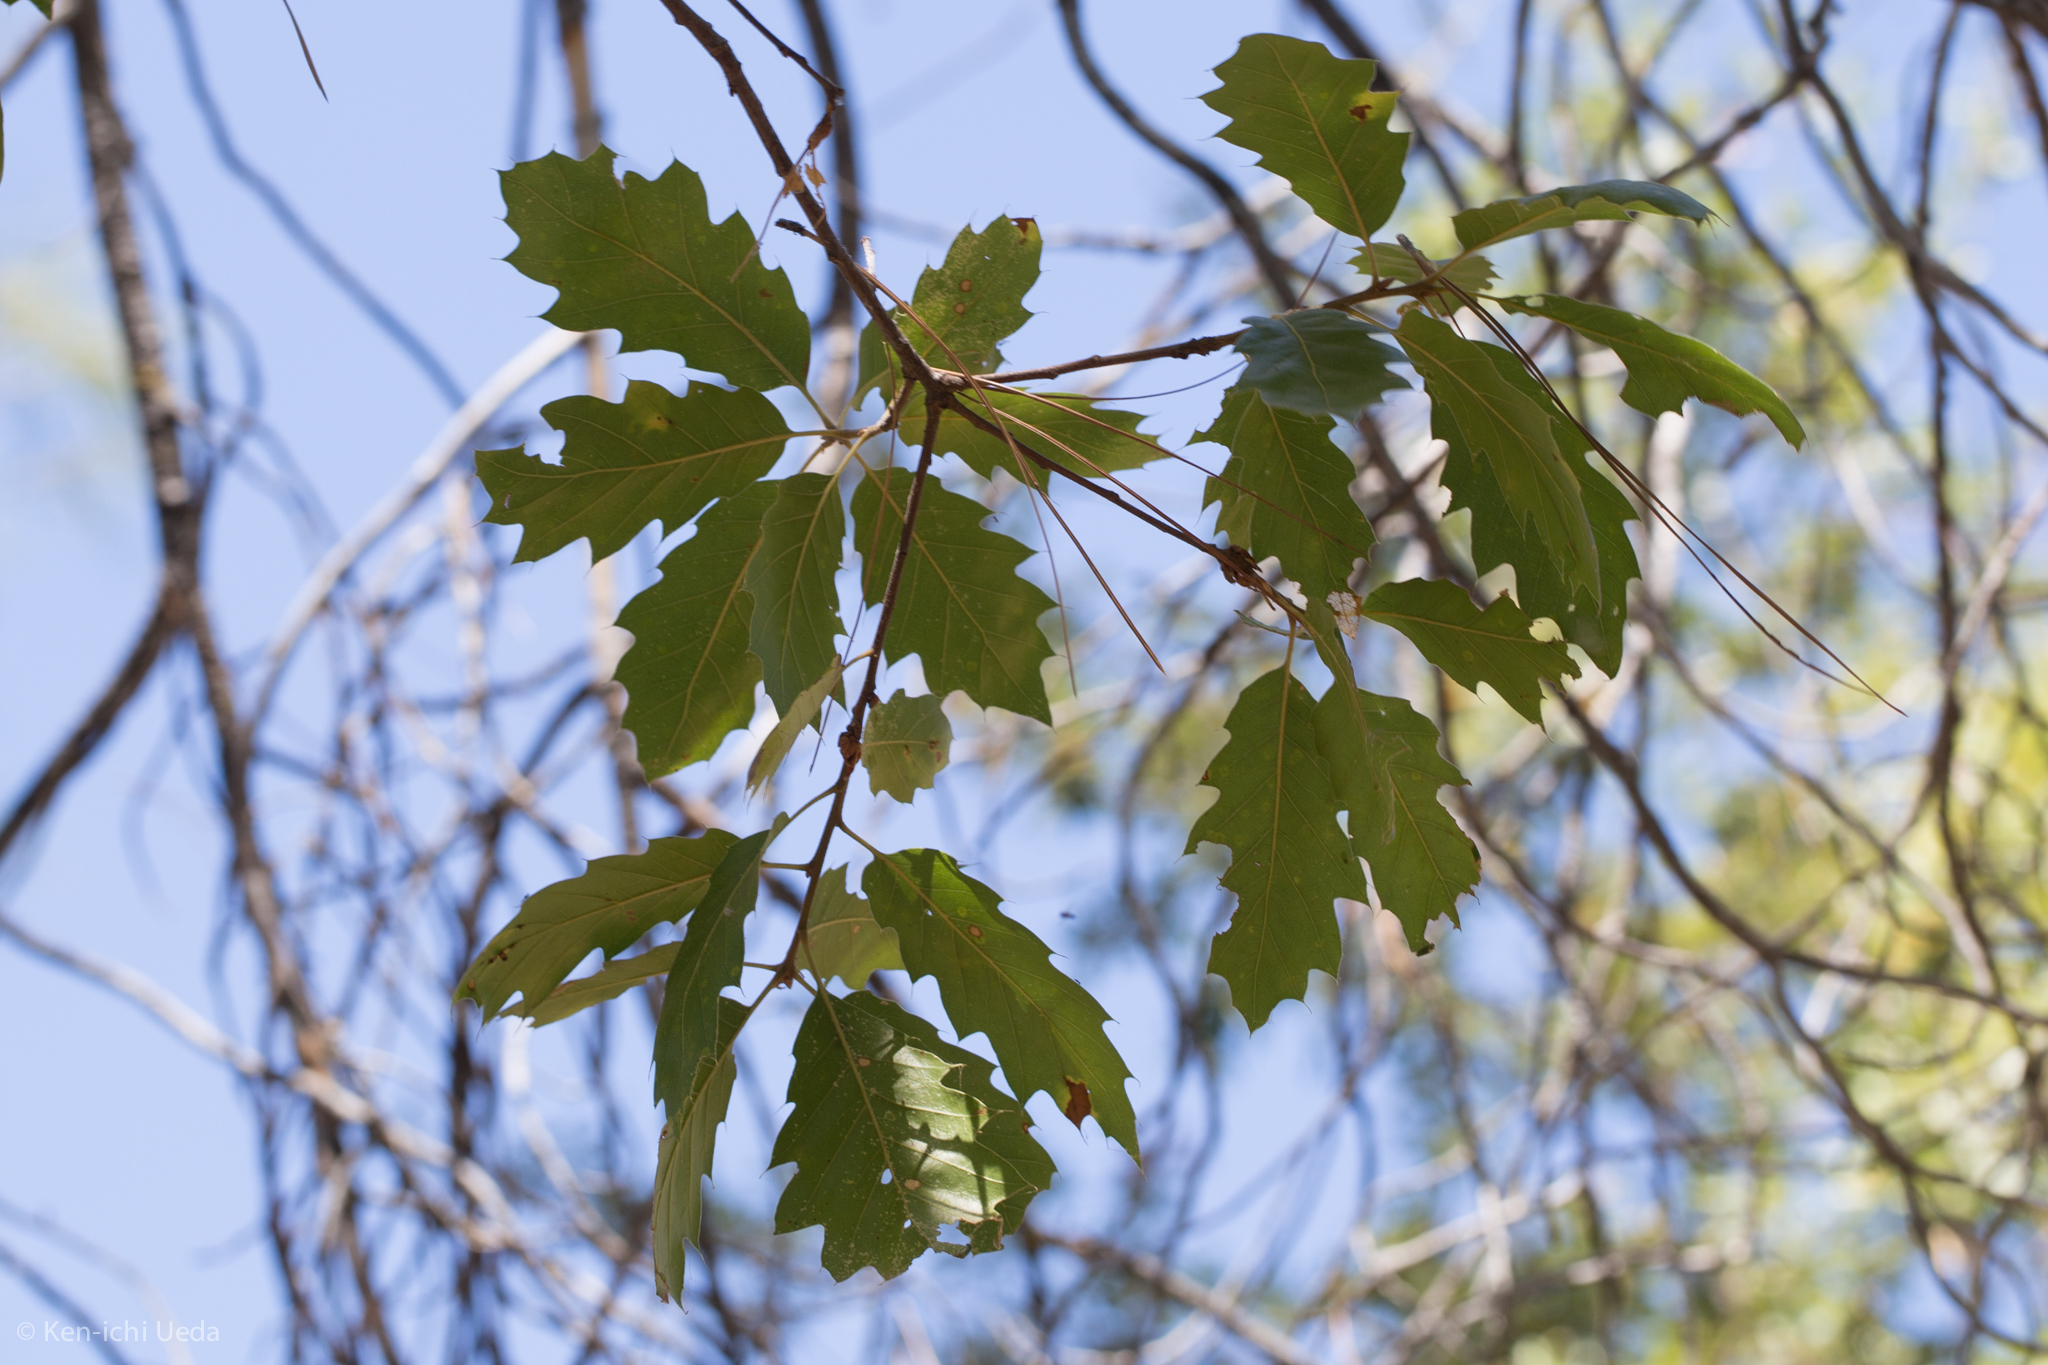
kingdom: Plantae
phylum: Tracheophyta
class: Magnoliopsida
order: Fagales
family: Fagaceae
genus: Quercus
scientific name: Quercus morehus
